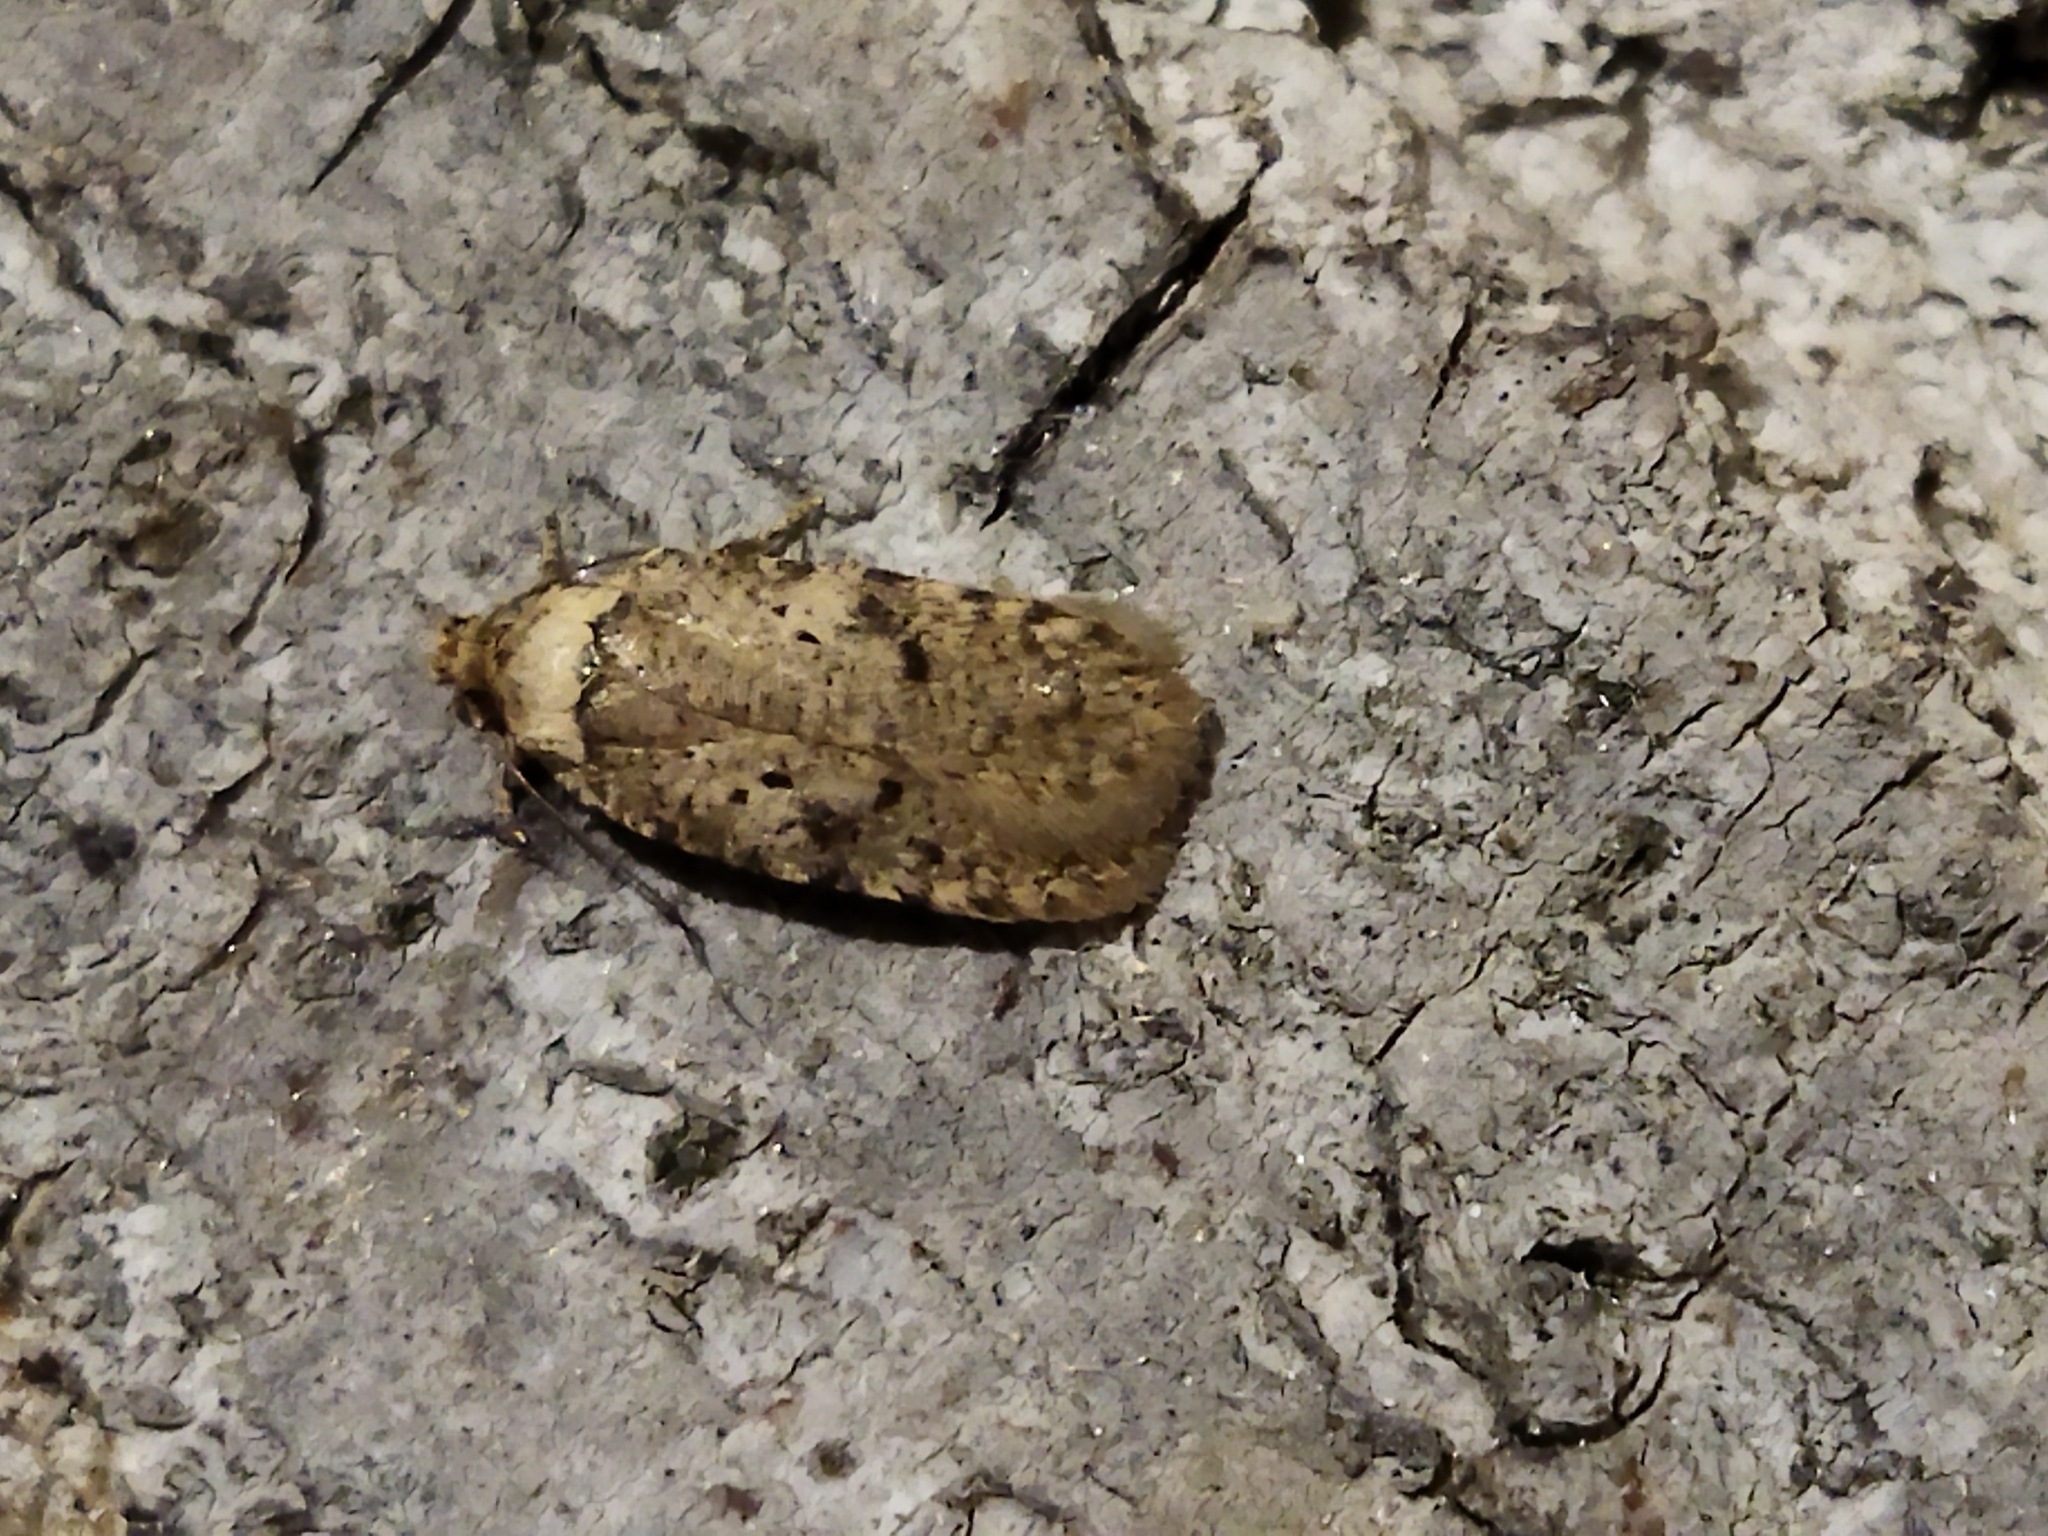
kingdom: Animalia
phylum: Arthropoda
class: Insecta
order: Lepidoptera
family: Depressariidae
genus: Agonopterix
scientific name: Agonopterix arenella
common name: Brindled flat-body
